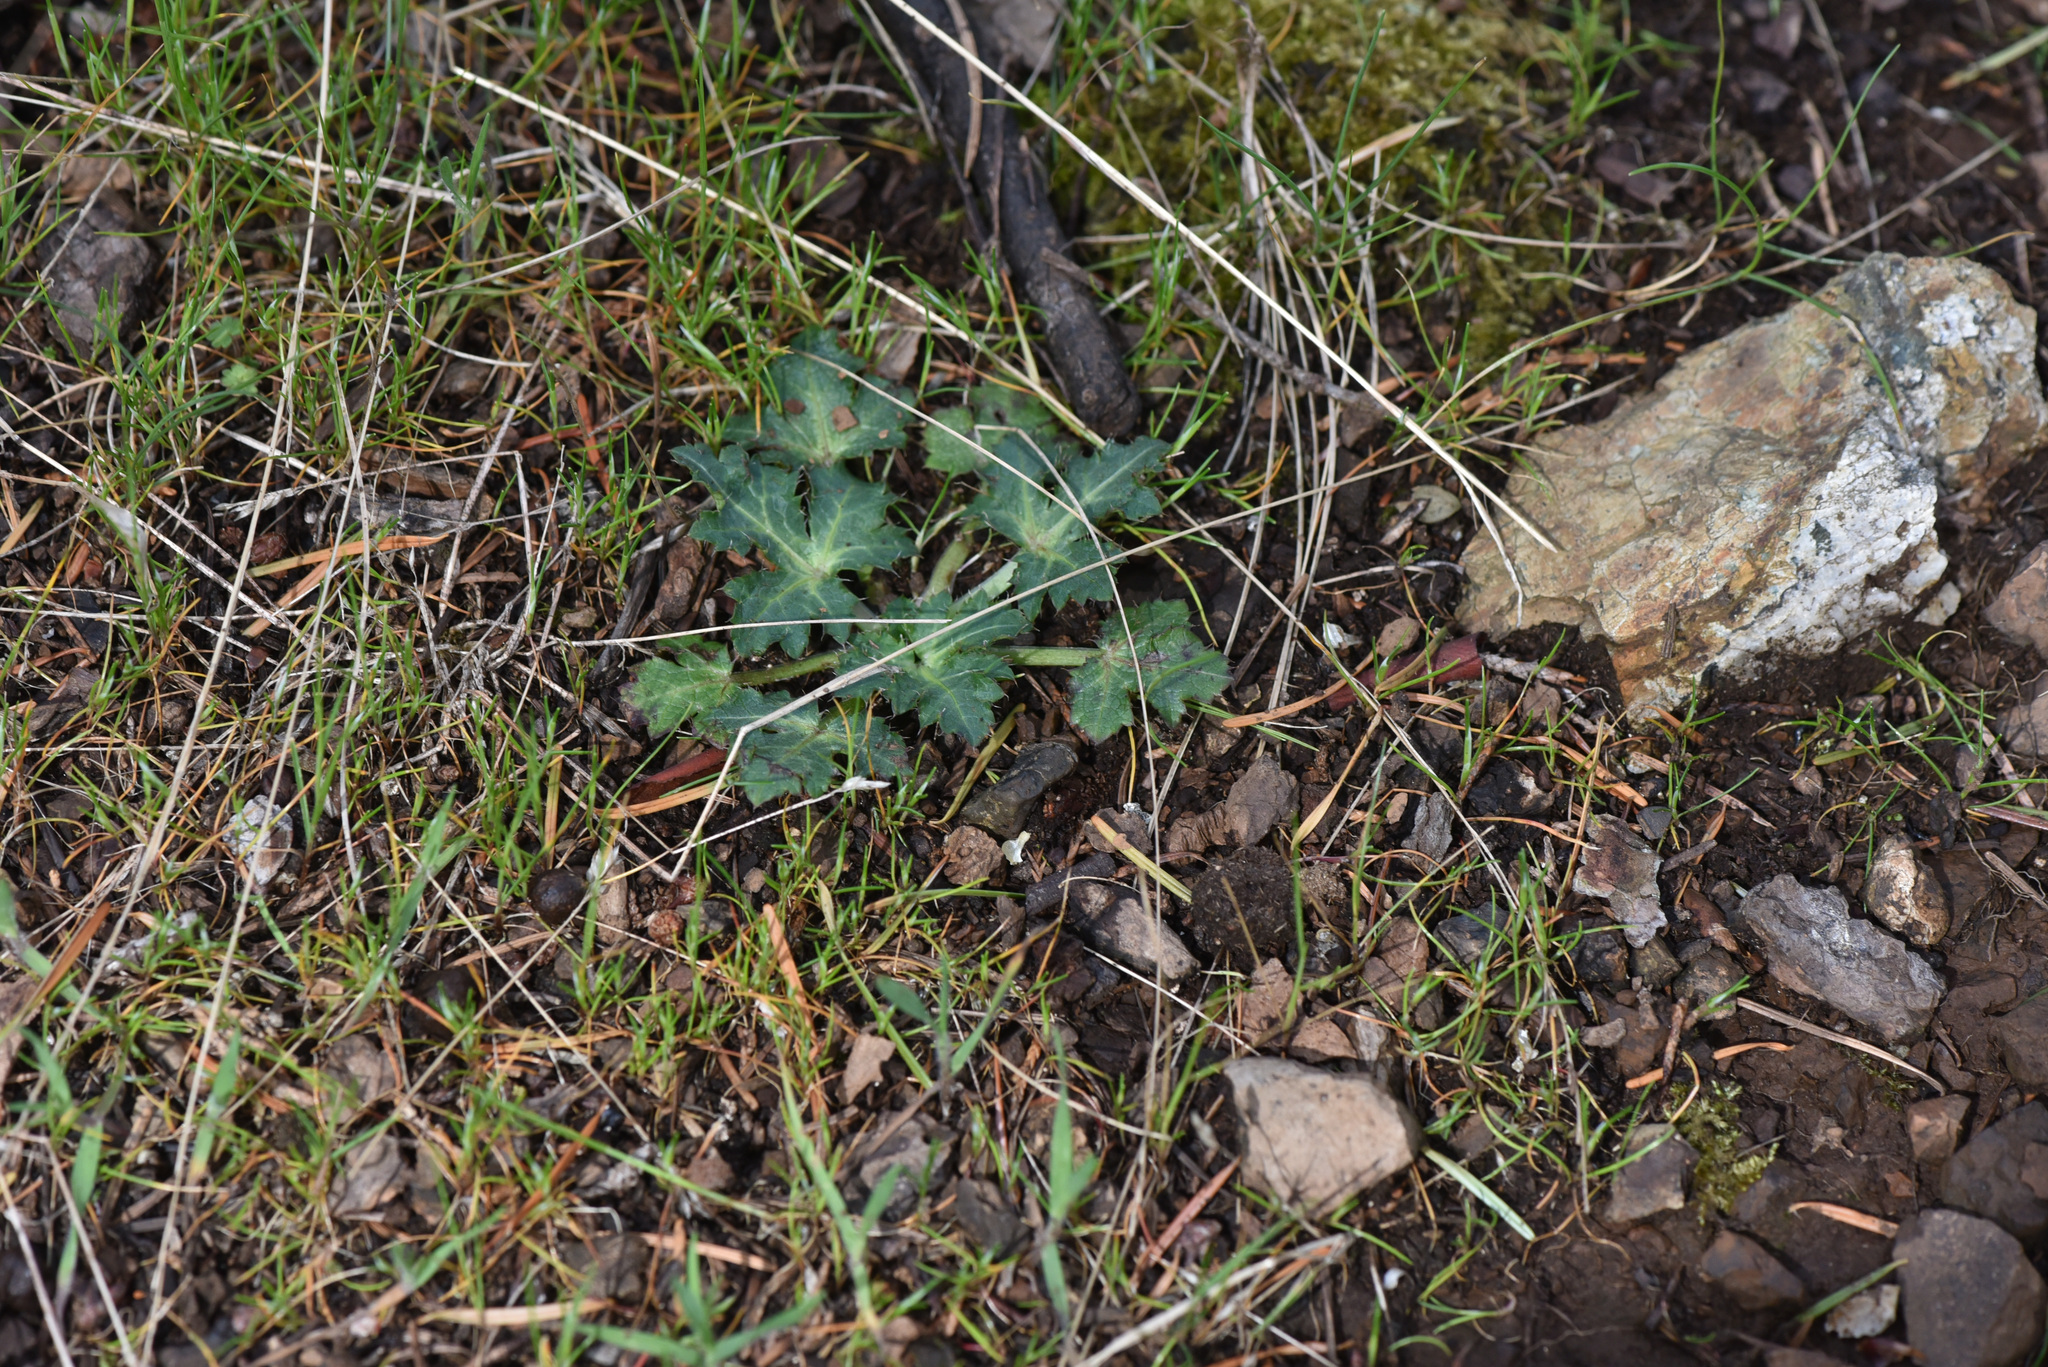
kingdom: Plantae
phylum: Tracheophyta
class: Magnoliopsida
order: Apiales
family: Apiaceae
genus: Sanicula
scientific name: Sanicula crassicaulis
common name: Western snakeroot
